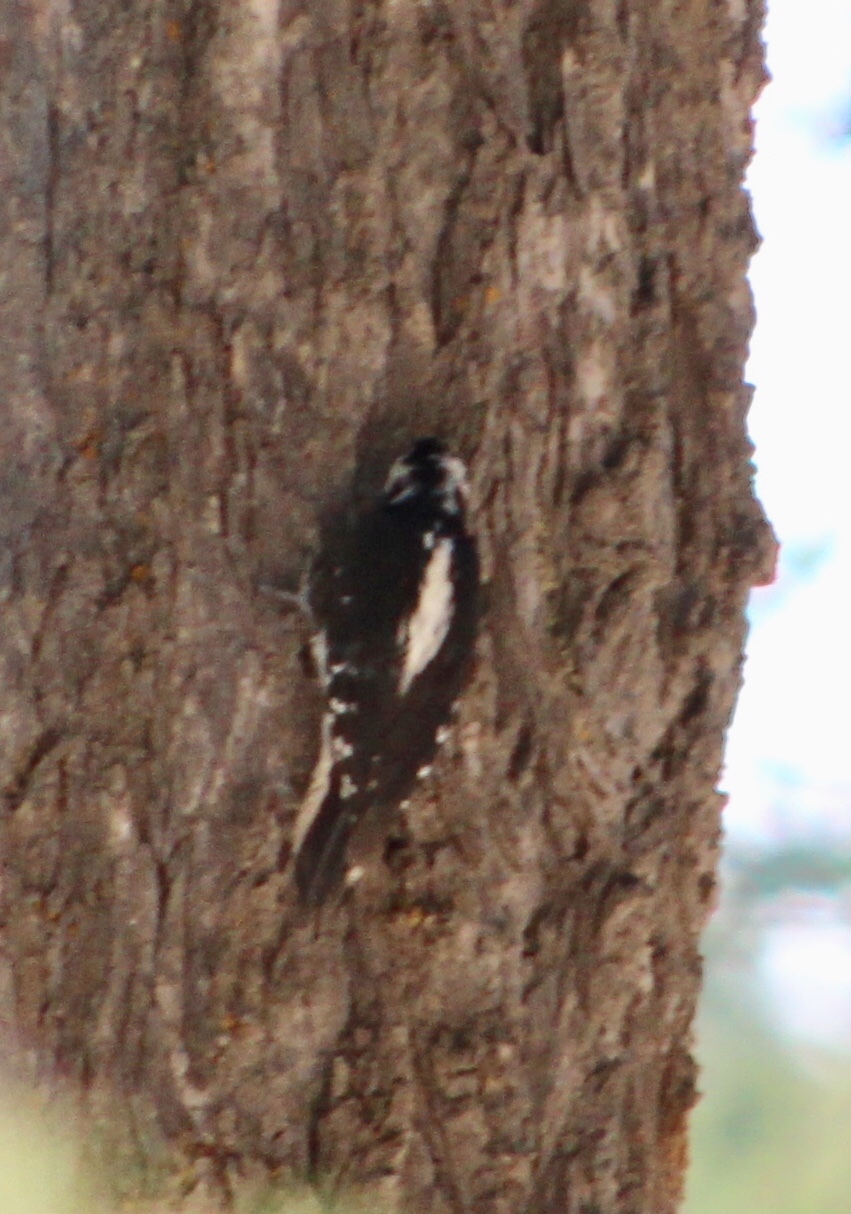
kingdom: Animalia
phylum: Chordata
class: Aves
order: Piciformes
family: Picidae
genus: Leuconotopicus
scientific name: Leuconotopicus villosus
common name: Hairy woodpecker
